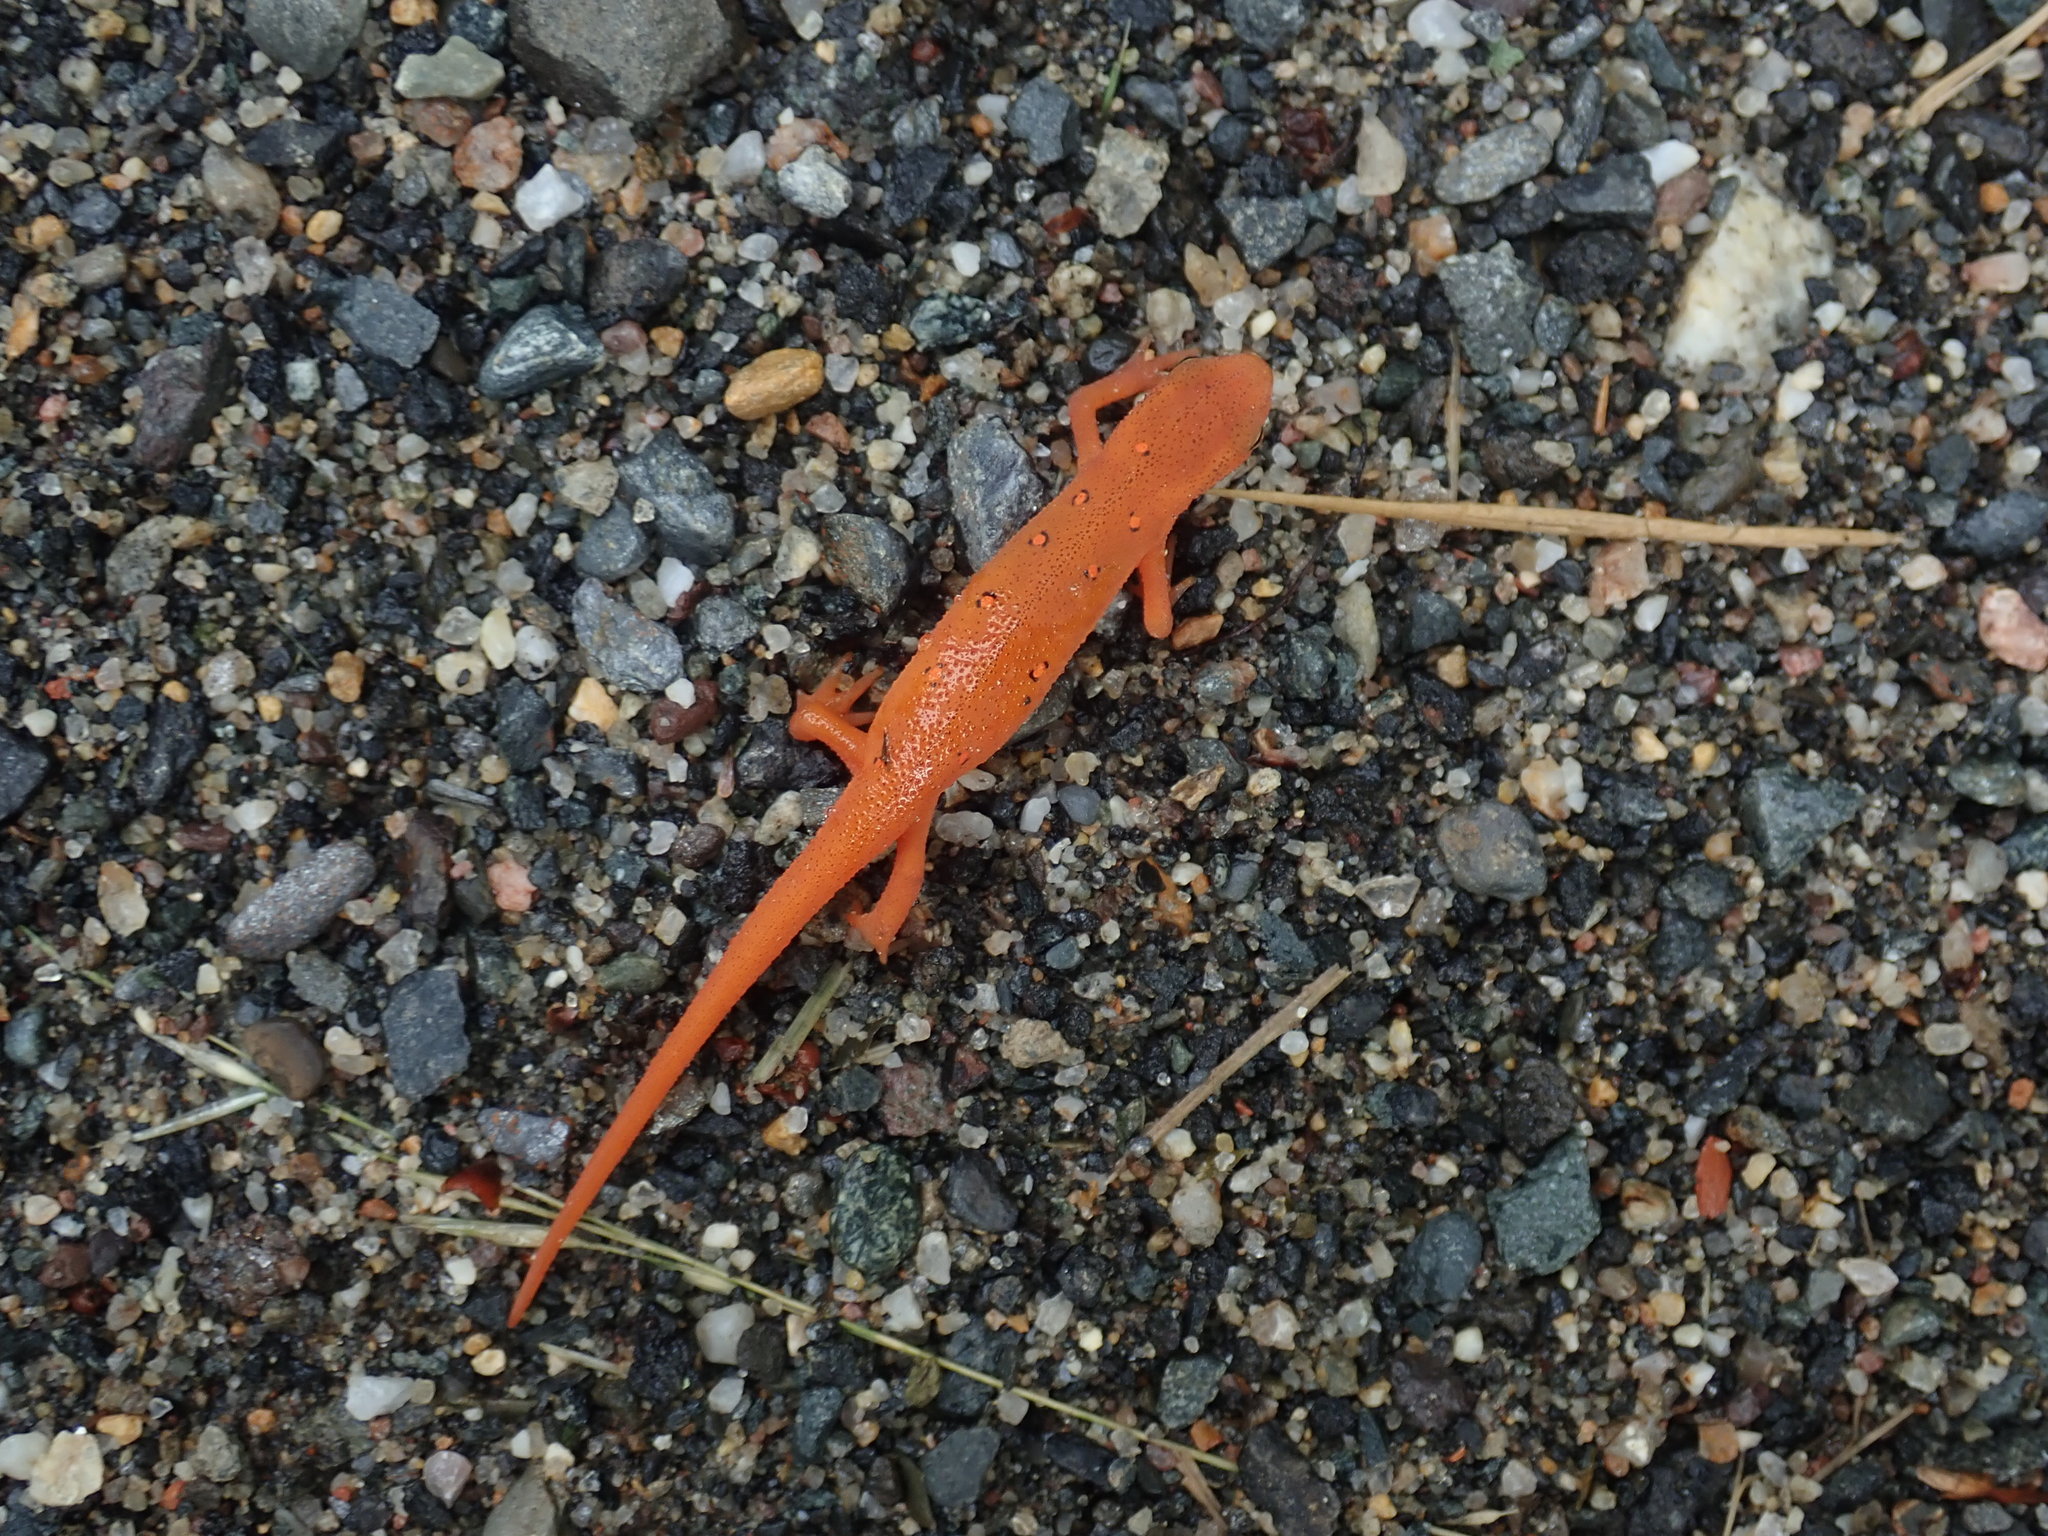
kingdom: Animalia
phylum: Chordata
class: Amphibia
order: Caudata
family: Salamandridae
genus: Notophthalmus
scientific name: Notophthalmus viridescens
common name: Eastern newt
